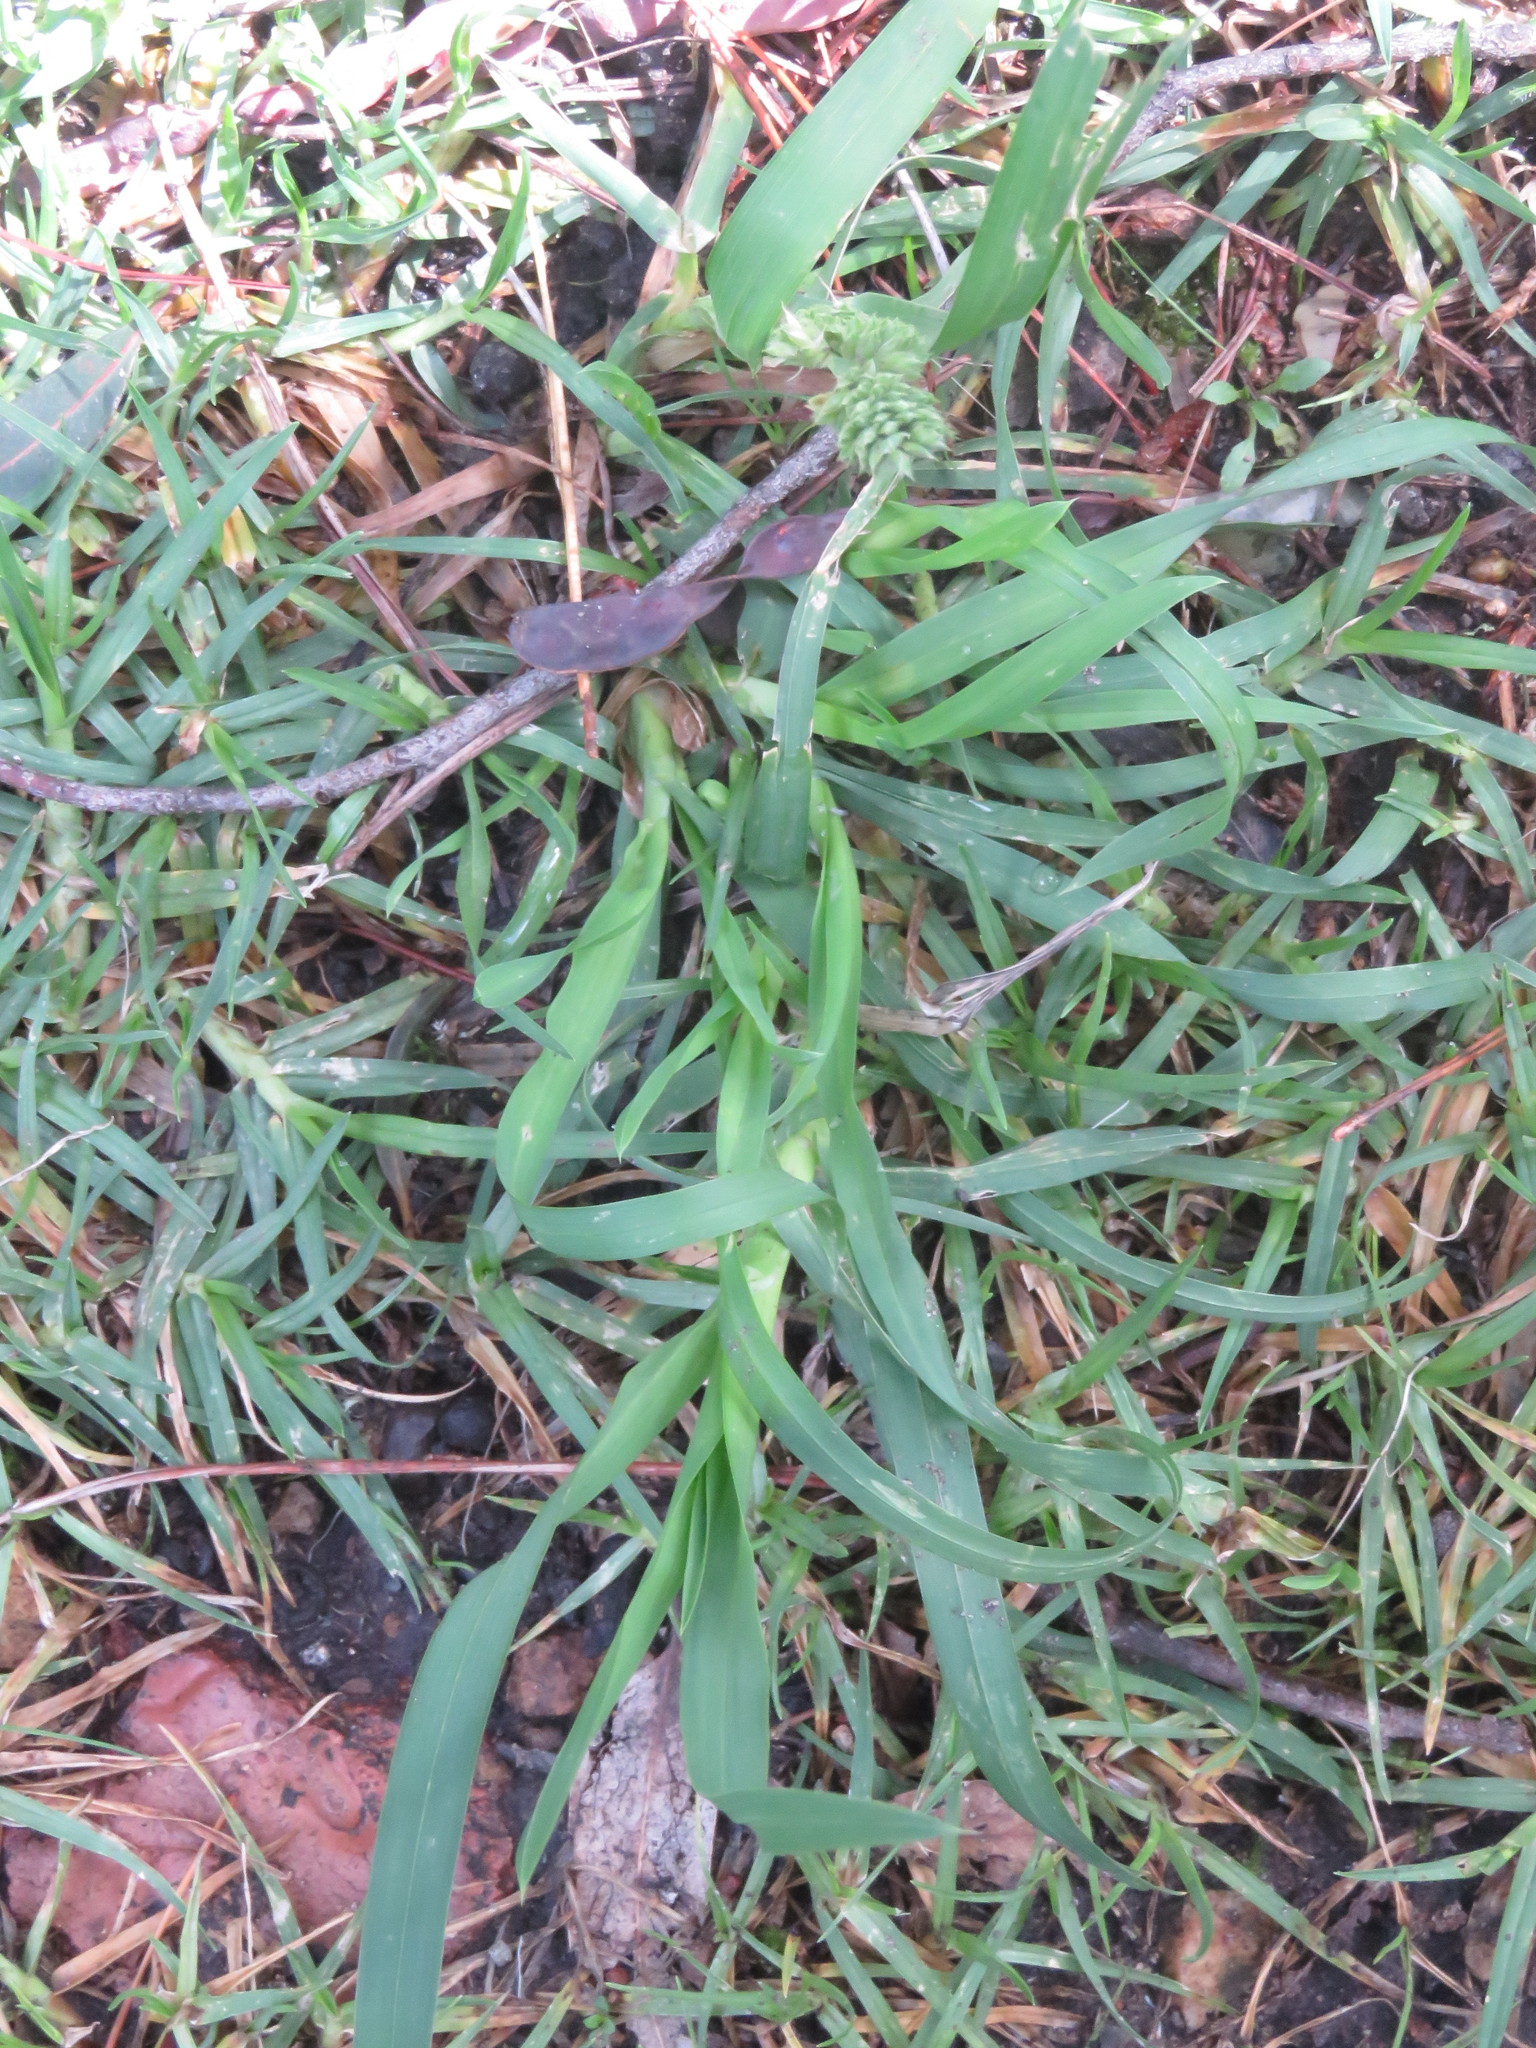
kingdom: Plantae
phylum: Tracheophyta
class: Liliopsida
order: Poales
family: Poaceae
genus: Dactylis
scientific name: Dactylis glomerata
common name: Orchardgrass
